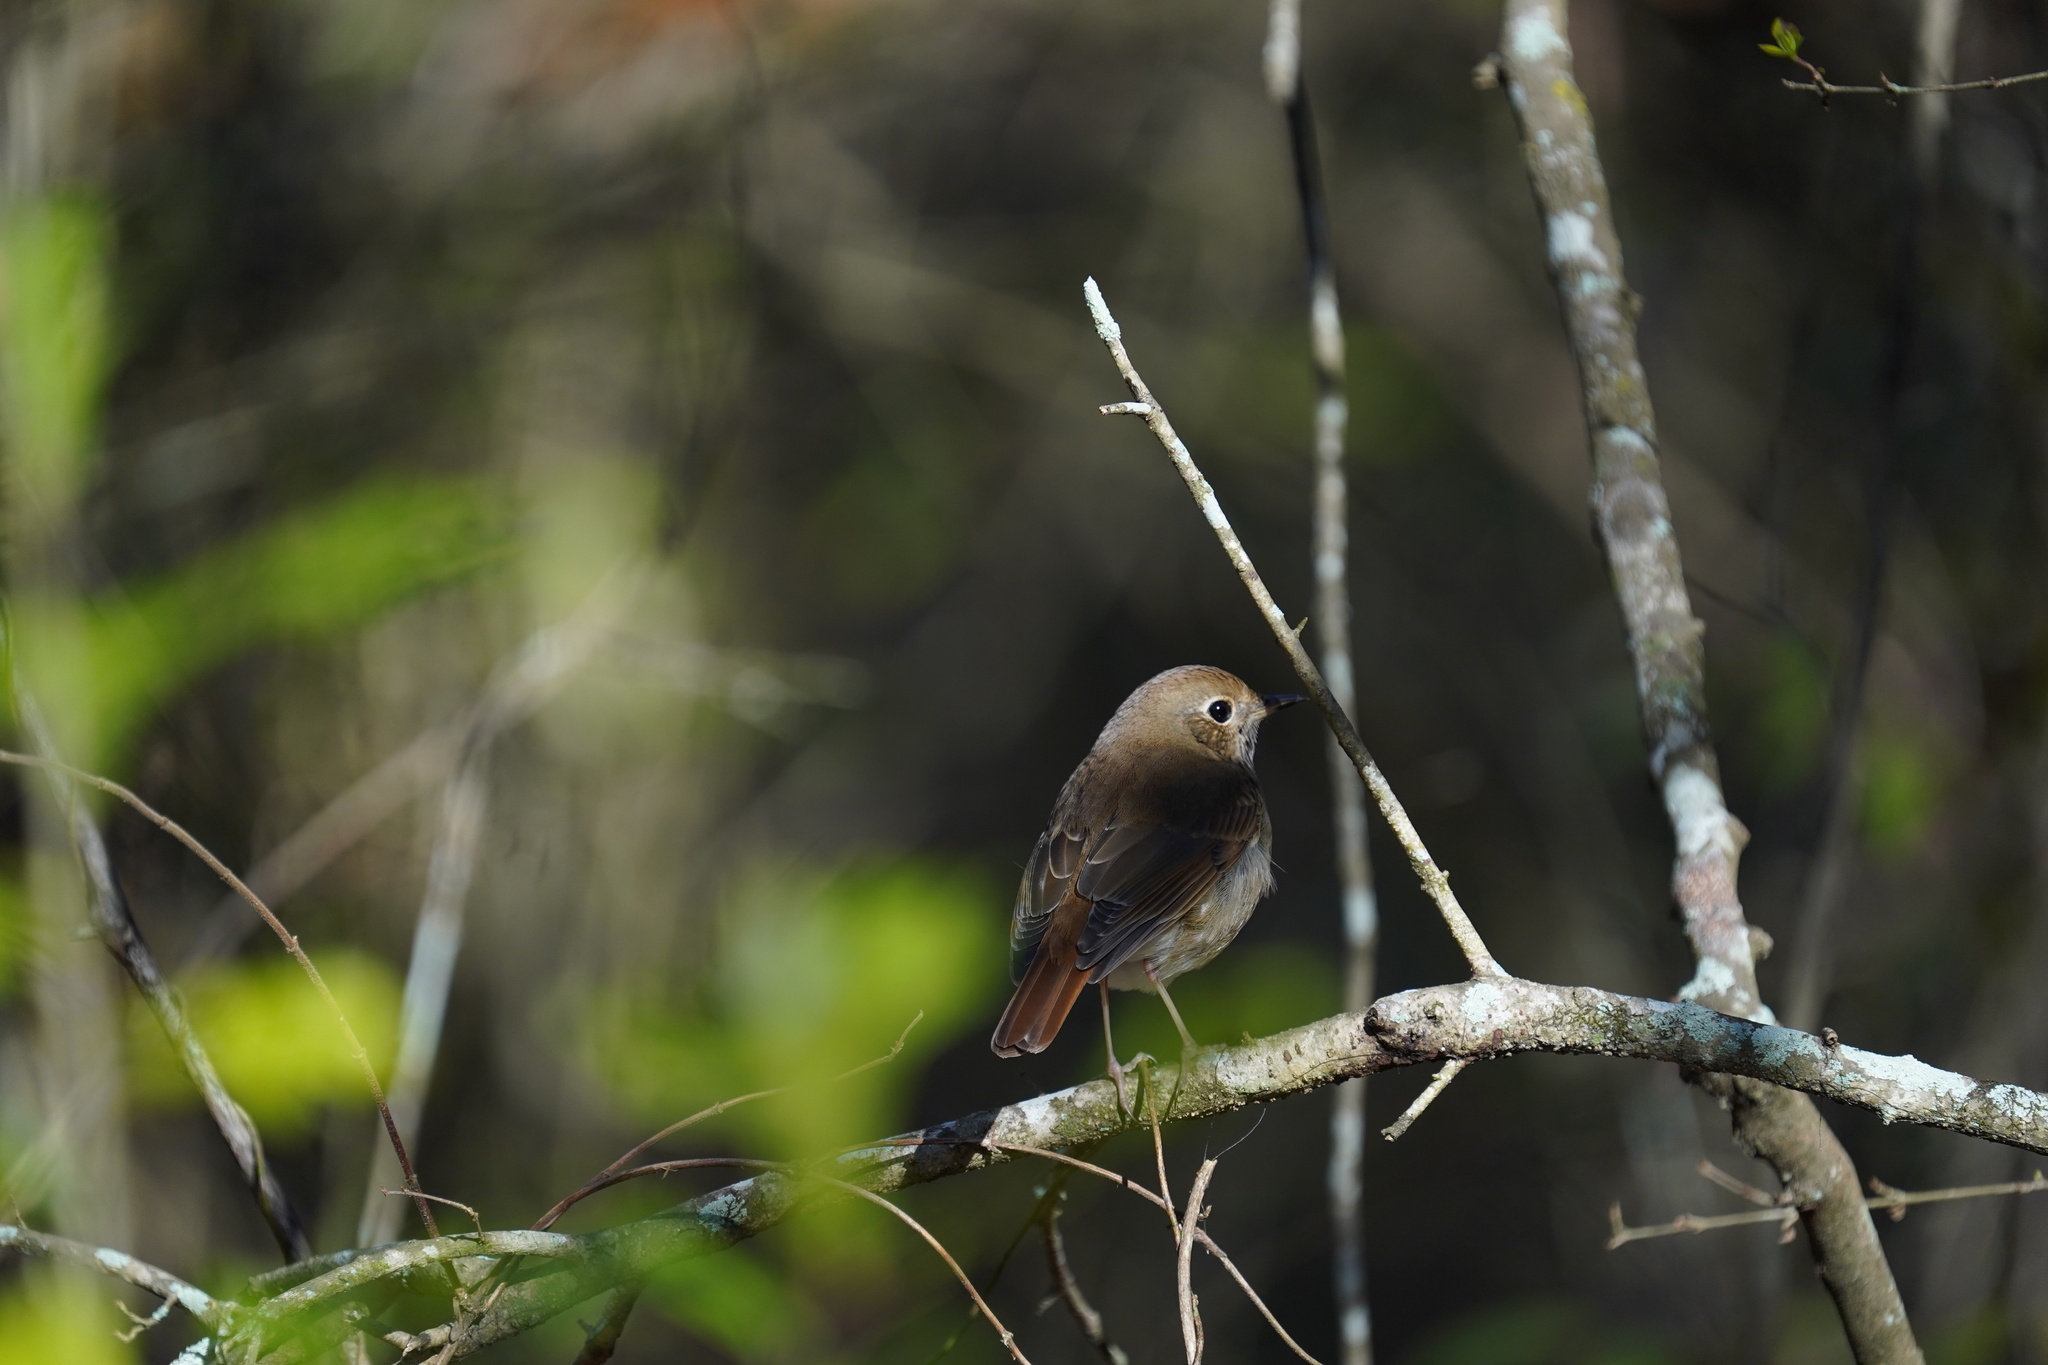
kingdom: Animalia
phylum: Chordata
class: Aves
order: Passeriformes
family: Turdidae
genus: Catharus
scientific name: Catharus guttatus
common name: Hermit thrush
